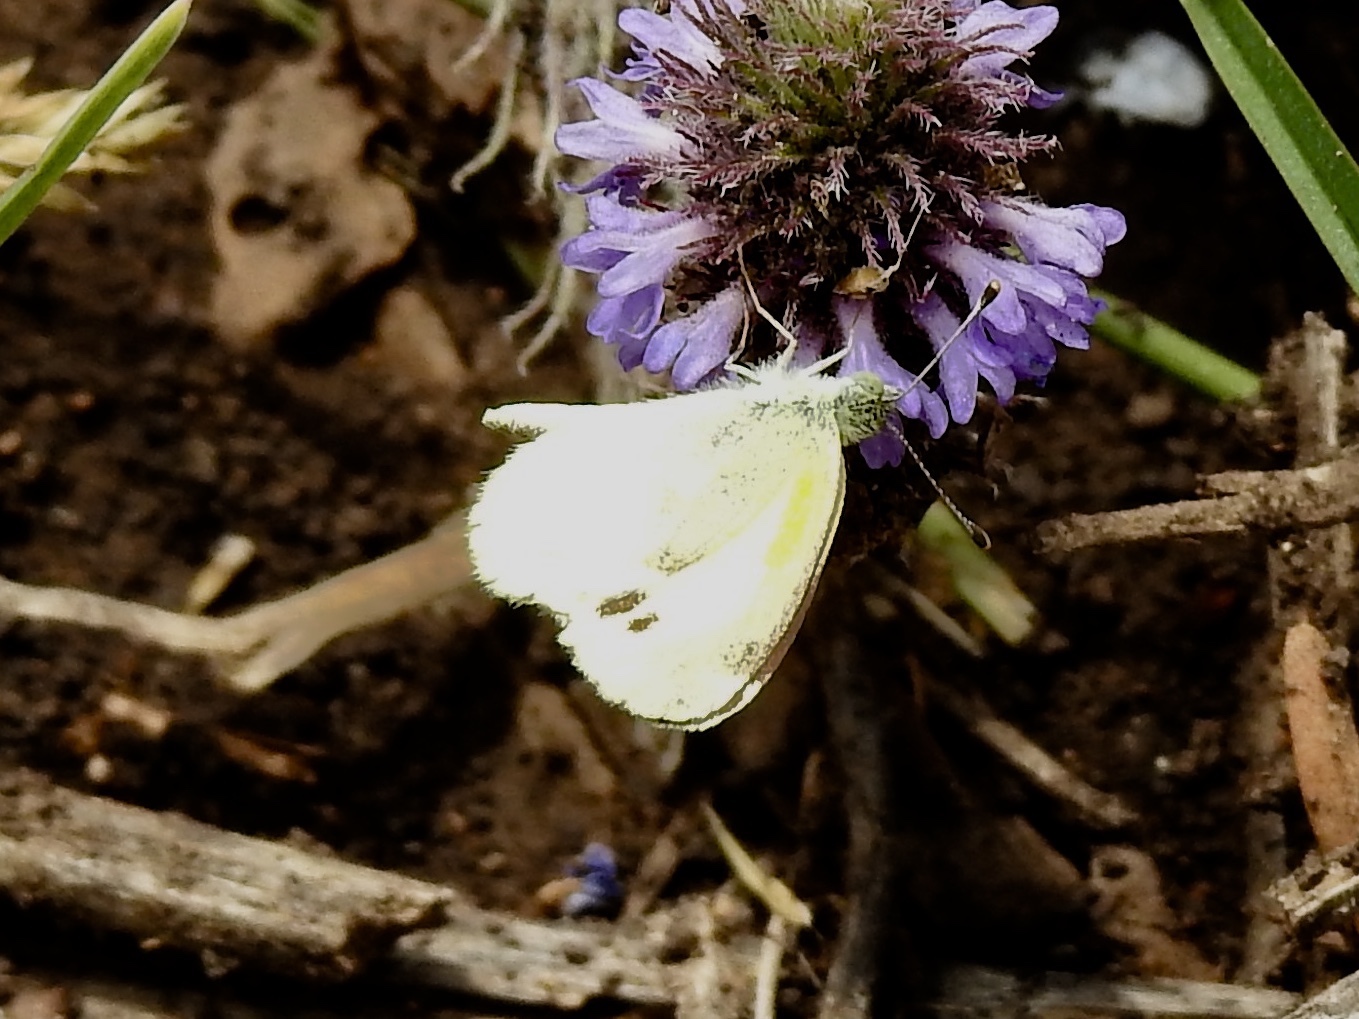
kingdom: Animalia
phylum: Arthropoda
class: Insecta
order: Lepidoptera
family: Pieridae
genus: Nathalis
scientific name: Nathalis iole
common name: Dainty sulphur
